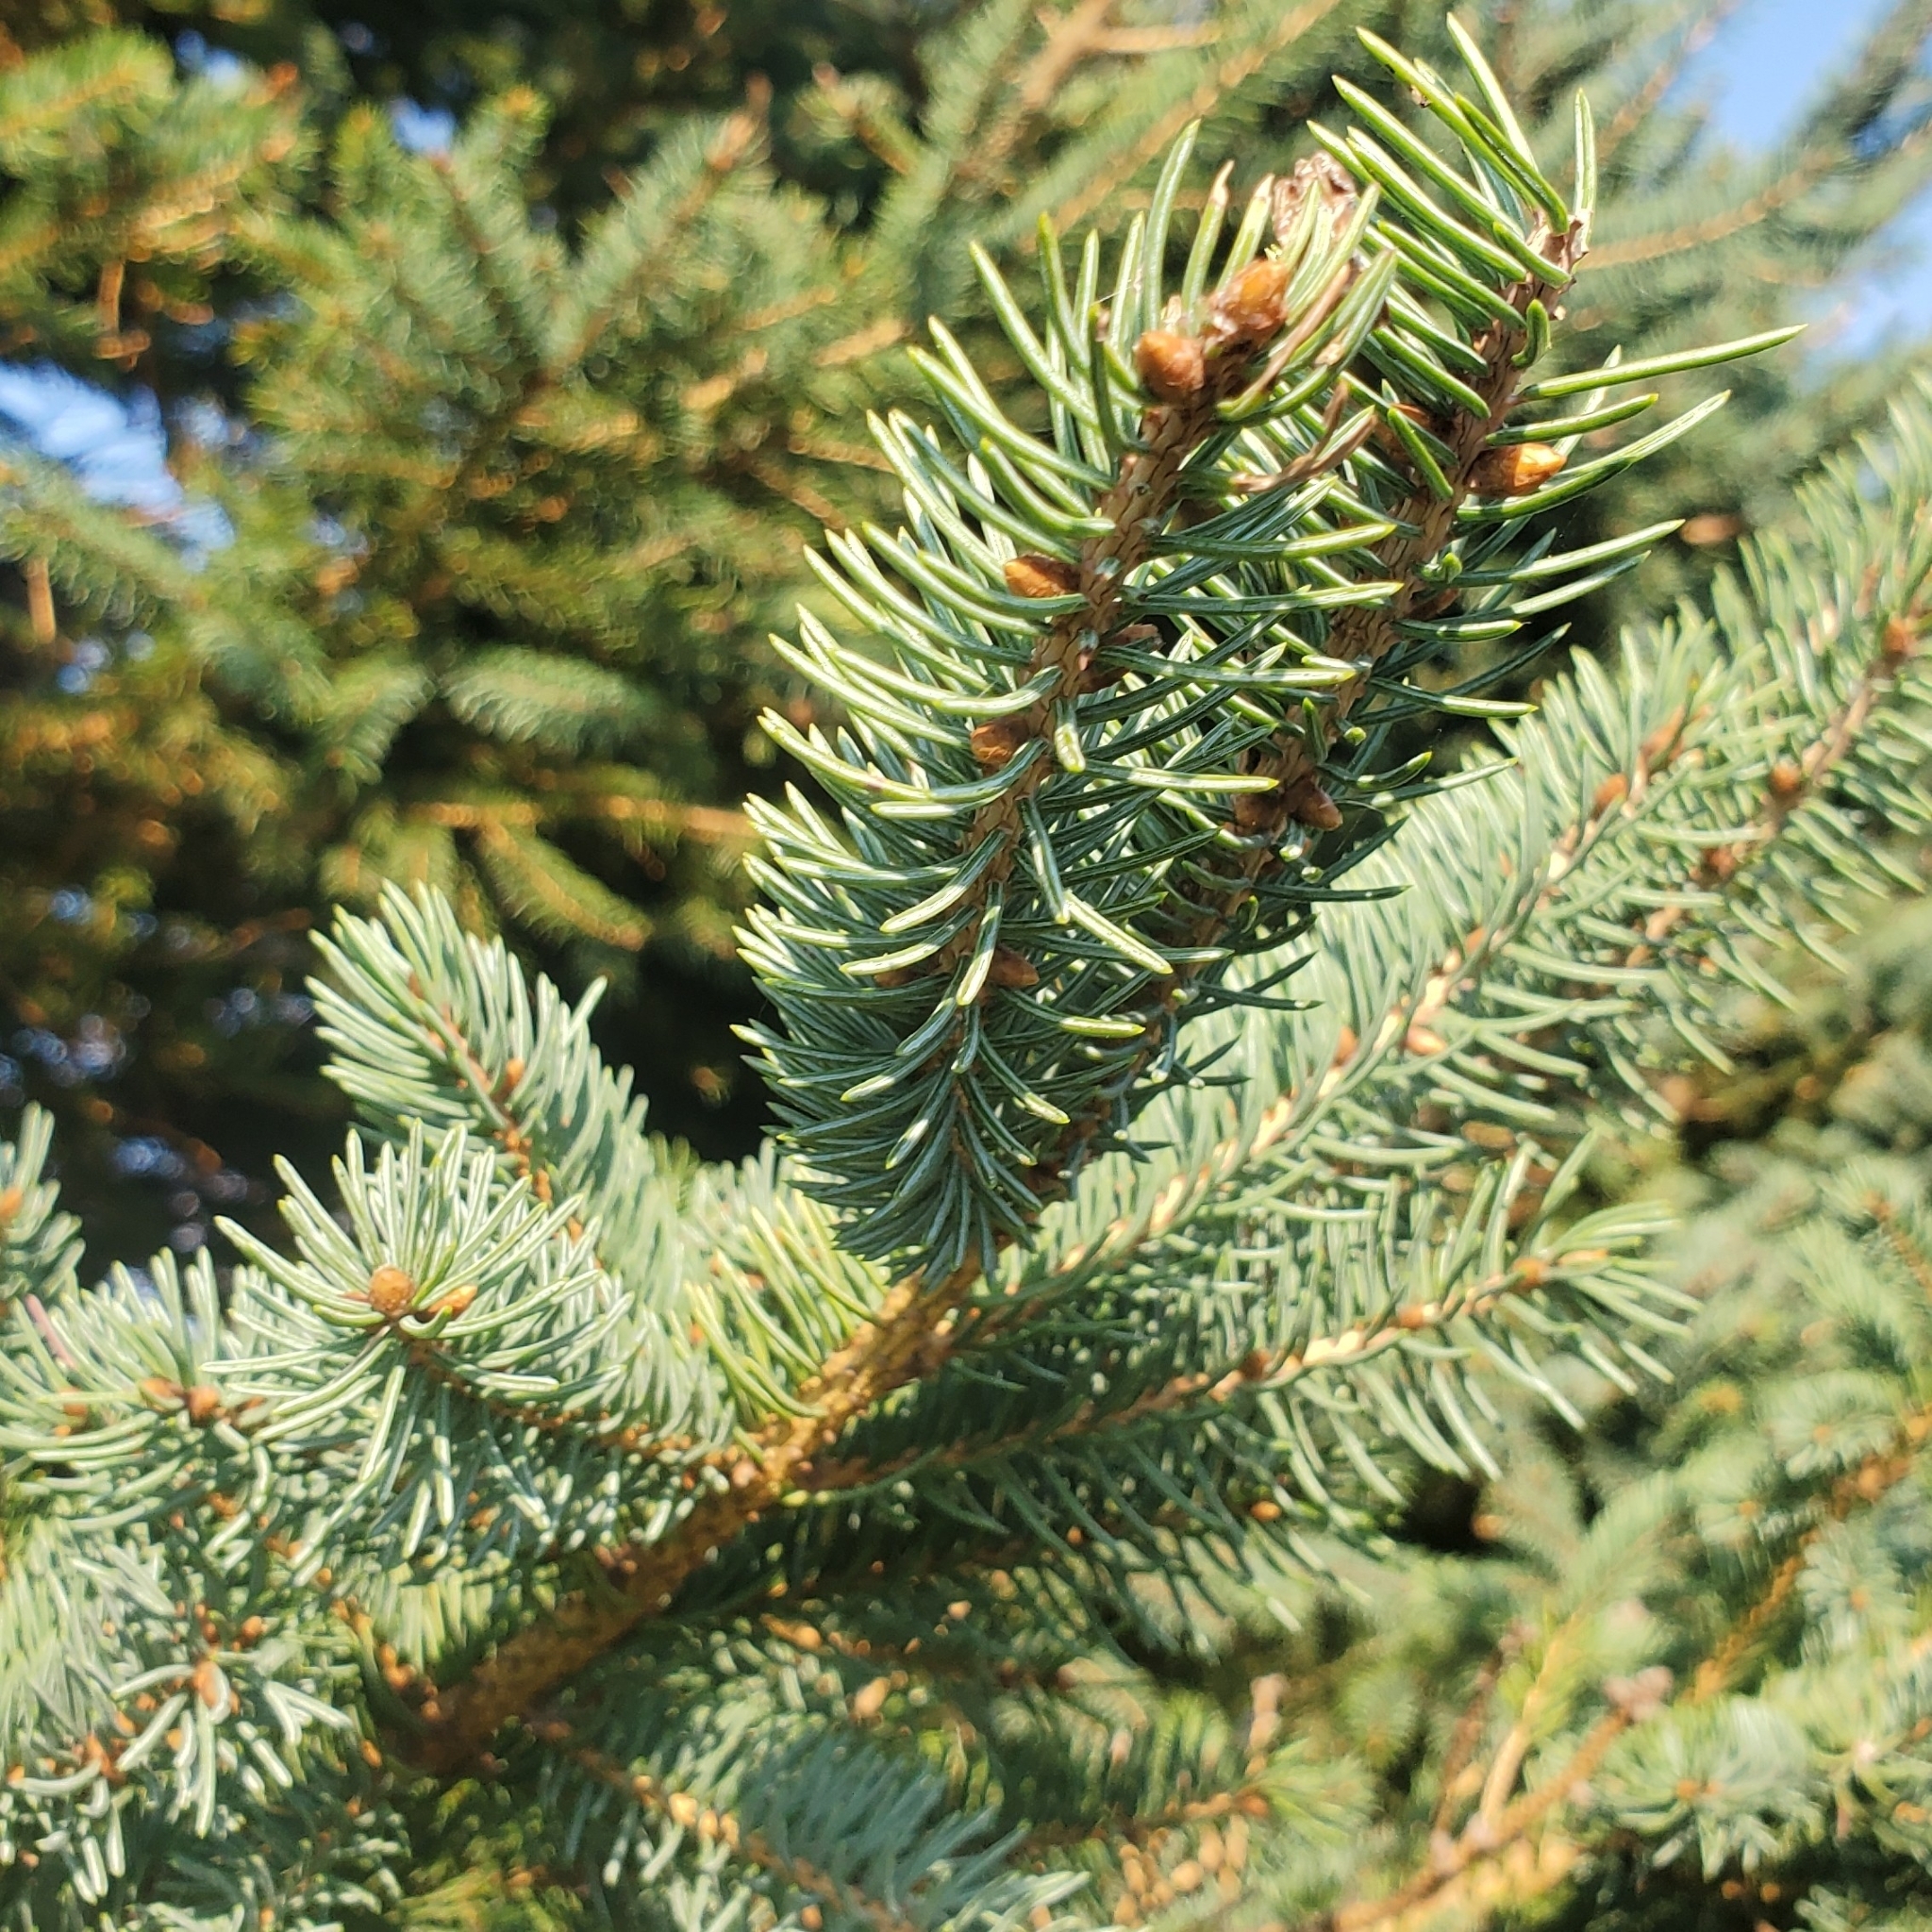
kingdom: Plantae
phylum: Tracheophyta
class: Pinopsida
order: Pinales
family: Pinaceae
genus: Picea
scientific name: Picea glauca
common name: White spruce
